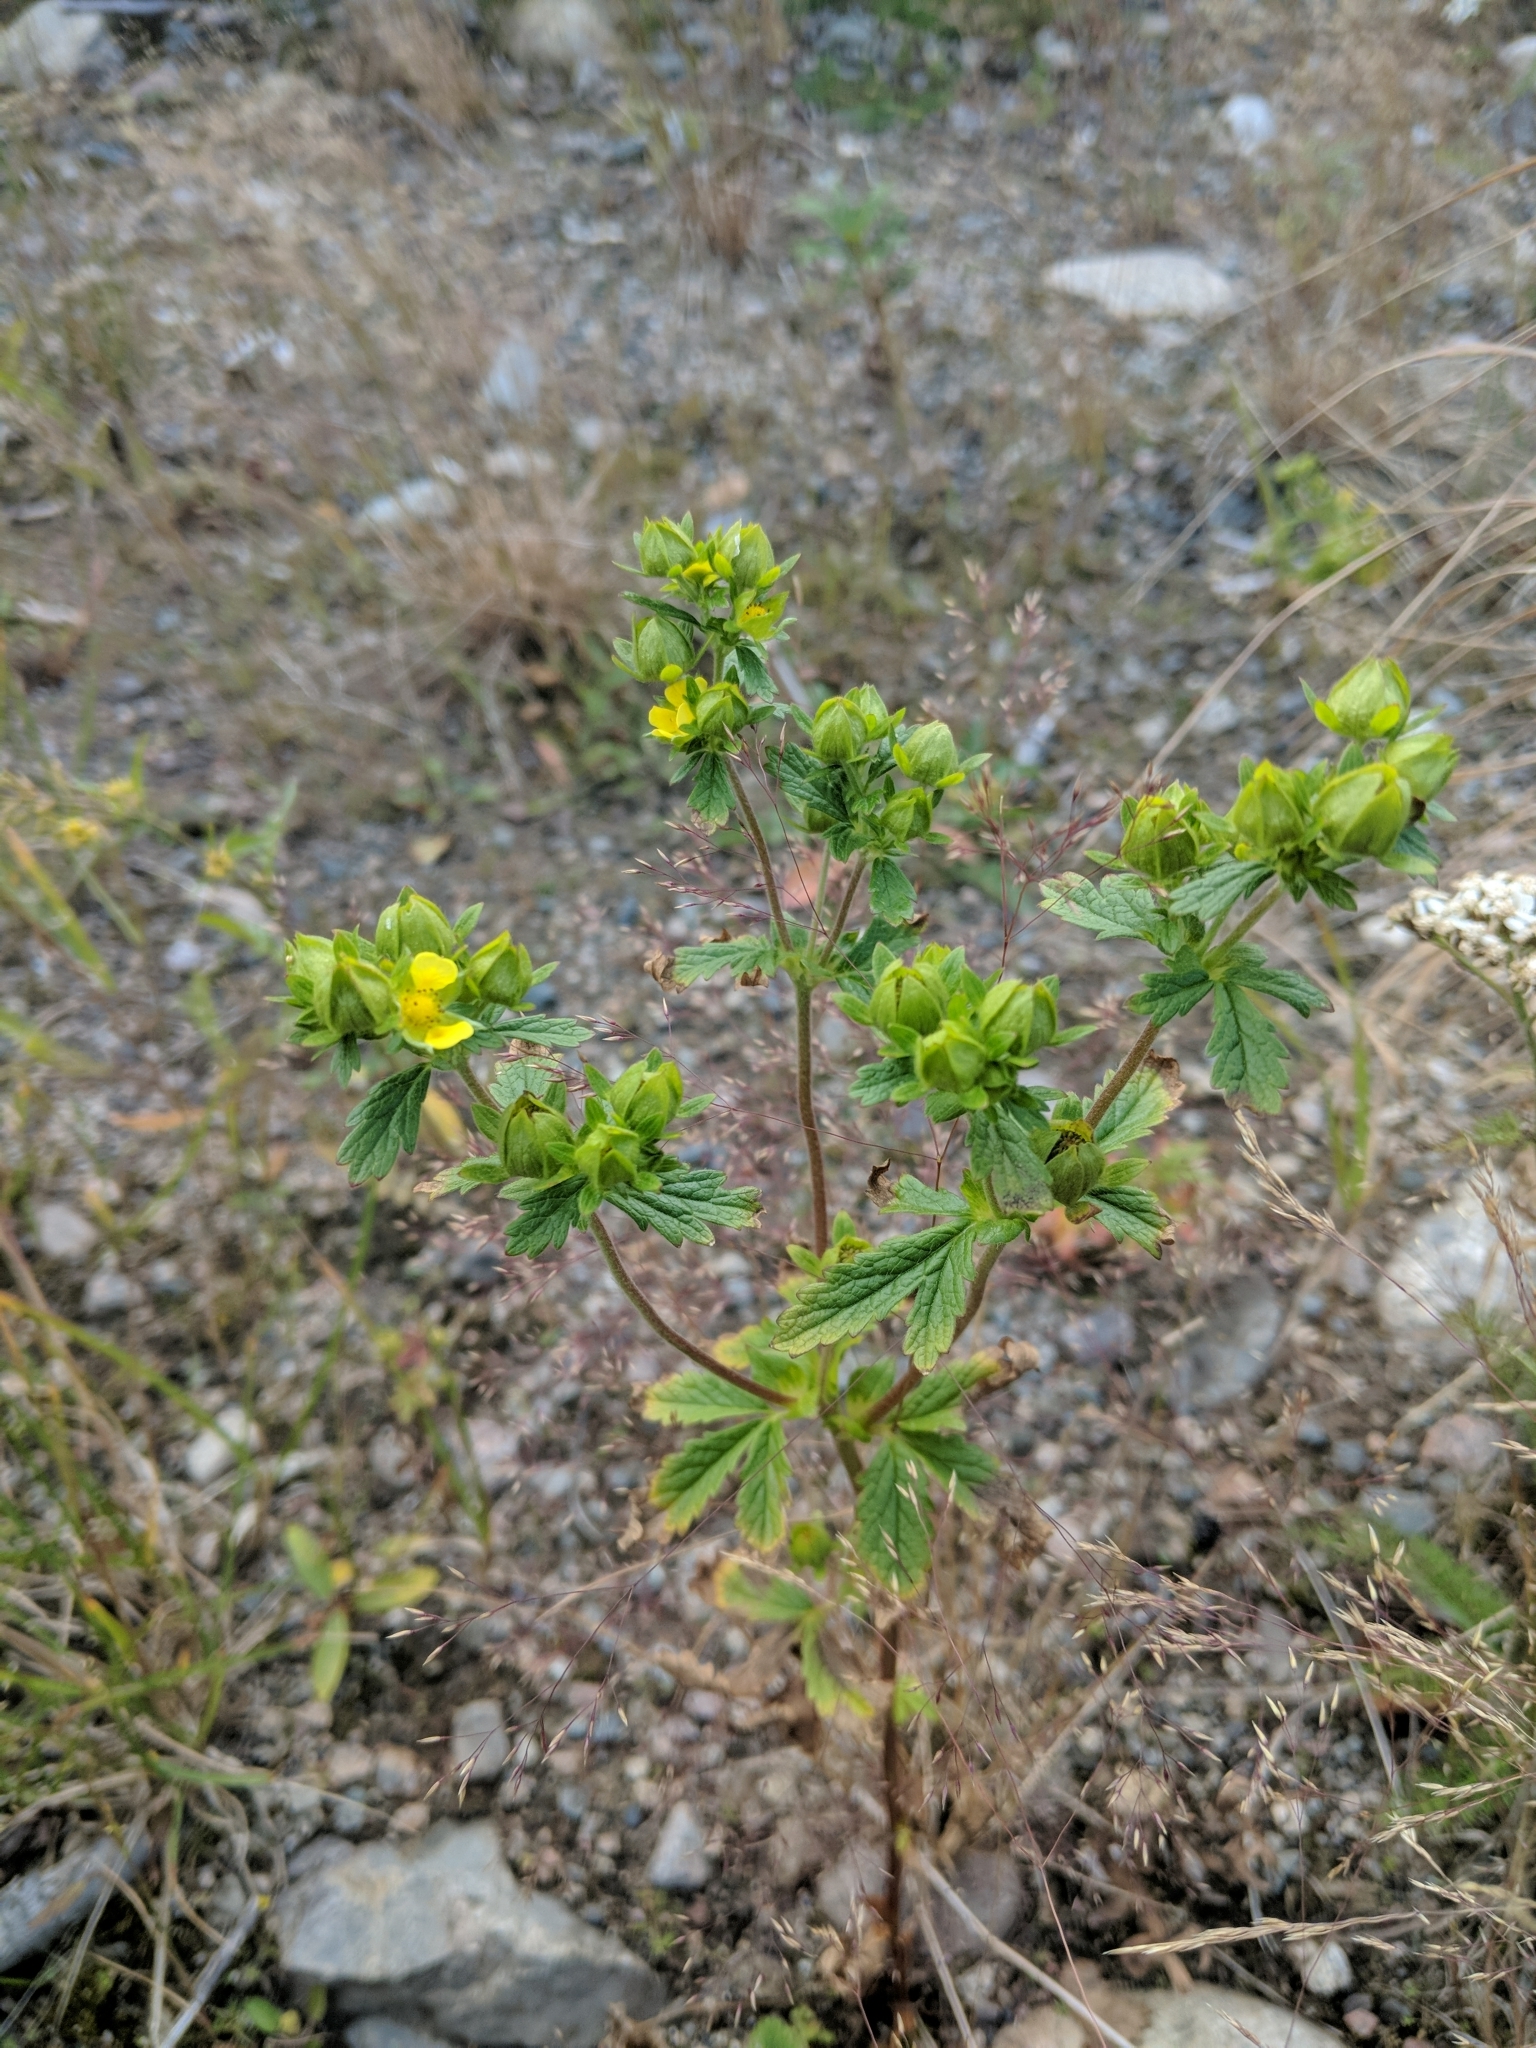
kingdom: Plantae
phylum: Tracheophyta
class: Magnoliopsida
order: Rosales
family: Rosaceae
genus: Potentilla
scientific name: Potentilla norvegica
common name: Ternate-leaved cinquefoil
